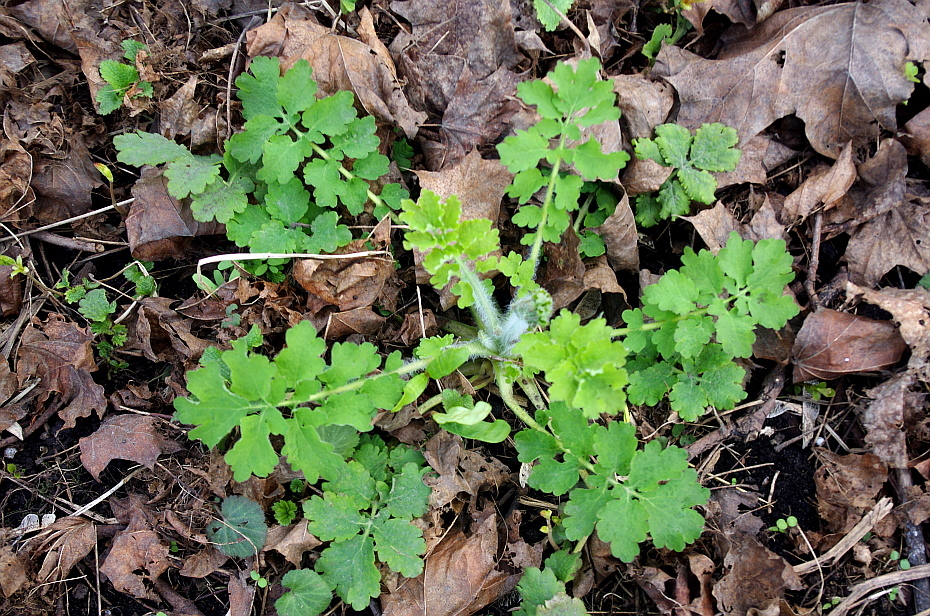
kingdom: Plantae
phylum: Tracheophyta
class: Magnoliopsida
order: Ranunculales
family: Papaveraceae
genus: Chelidonium
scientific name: Chelidonium majus
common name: Greater celandine
